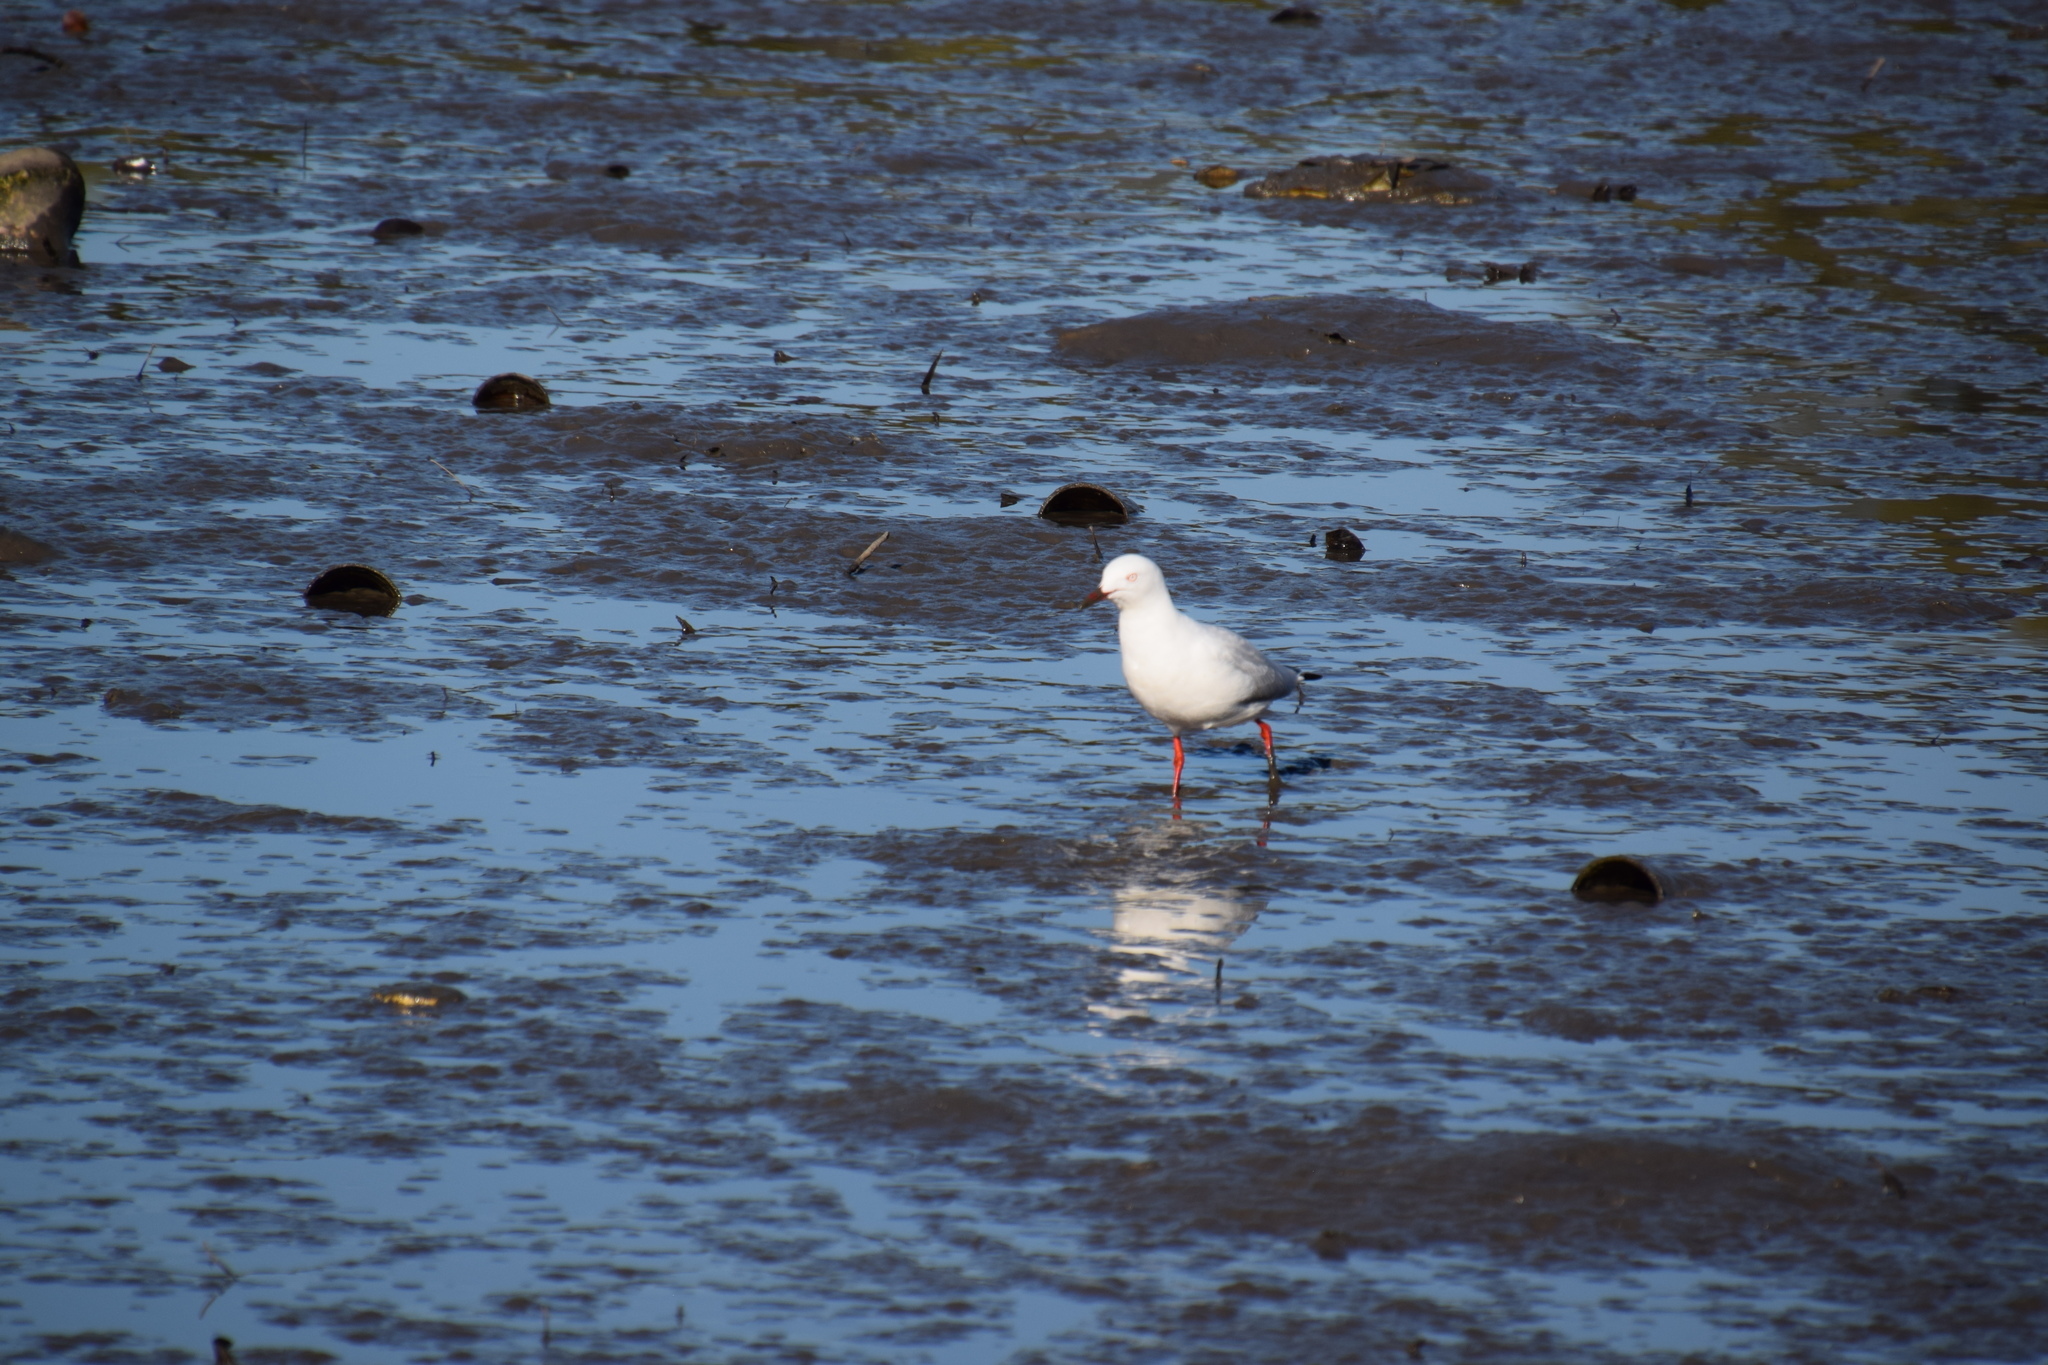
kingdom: Animalia
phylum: Chordata
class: Aves
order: Charadriiformes
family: Laridae
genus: Chroicocephalus
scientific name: Chroicocephalus novaehollandiae
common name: Silver gull
